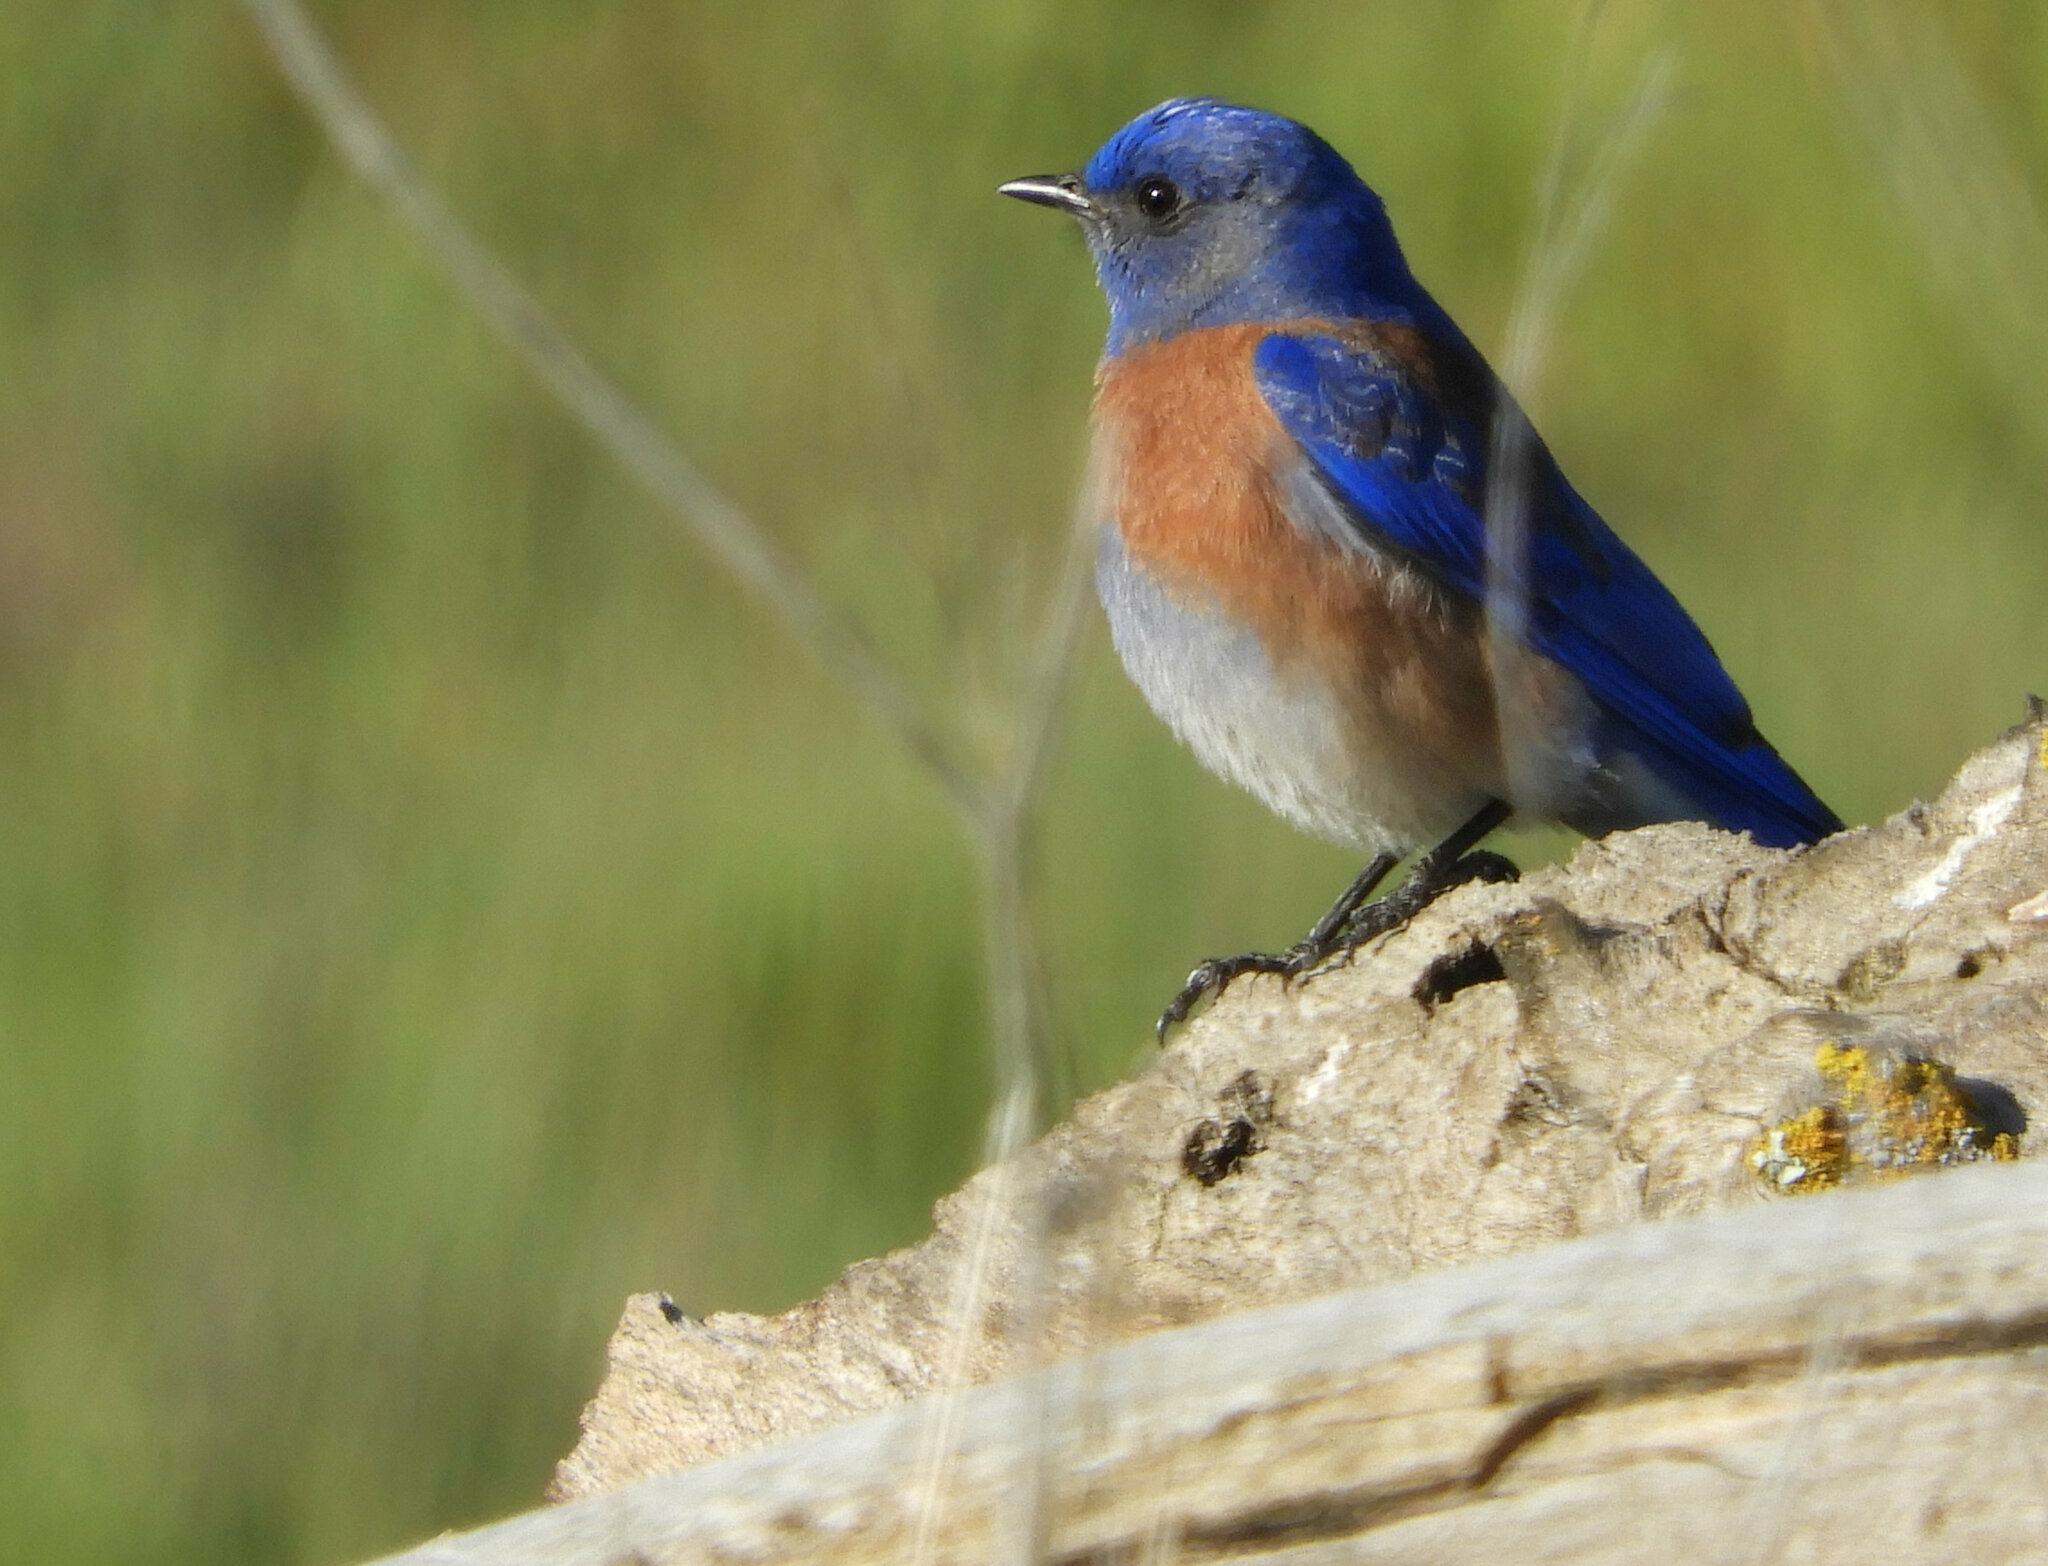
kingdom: Animalia
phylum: Chordata
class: Aves
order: Passeriformes
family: Turdidae
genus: Sialia
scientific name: Sialia mexicana
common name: Western bluebird
